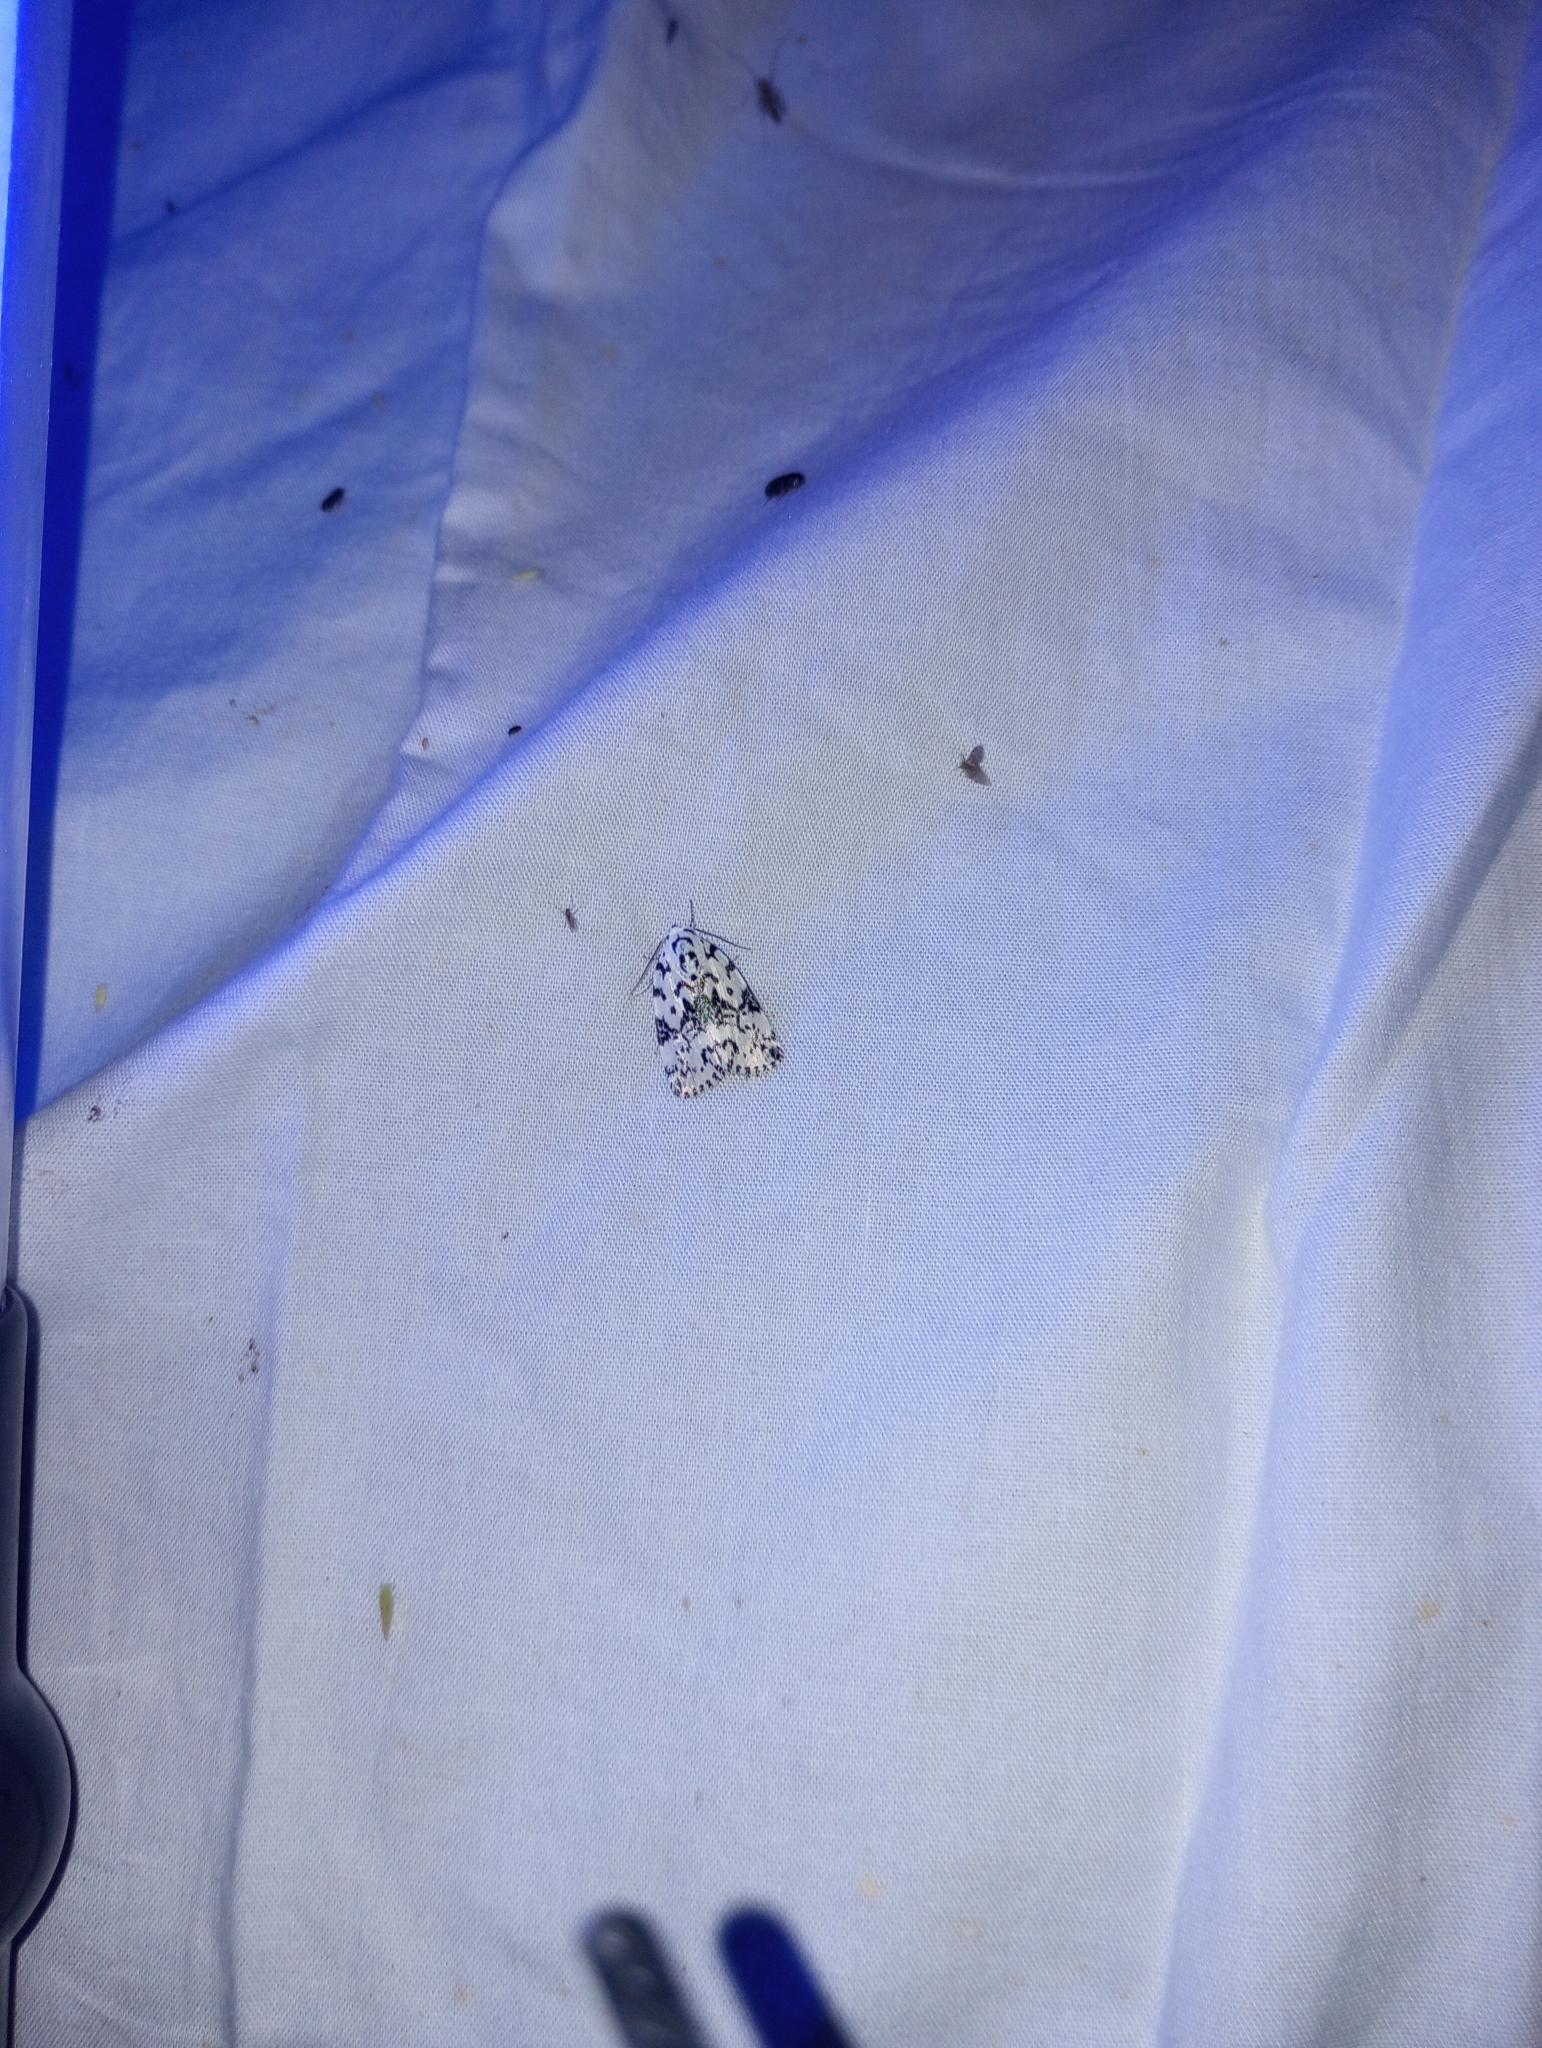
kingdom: Animalia
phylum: Arthropoda
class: Insecta
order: Lepidoptera
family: Noctuidae
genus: Polygrammate
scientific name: Polygrammate hebraeicum
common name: Hebrew moth
